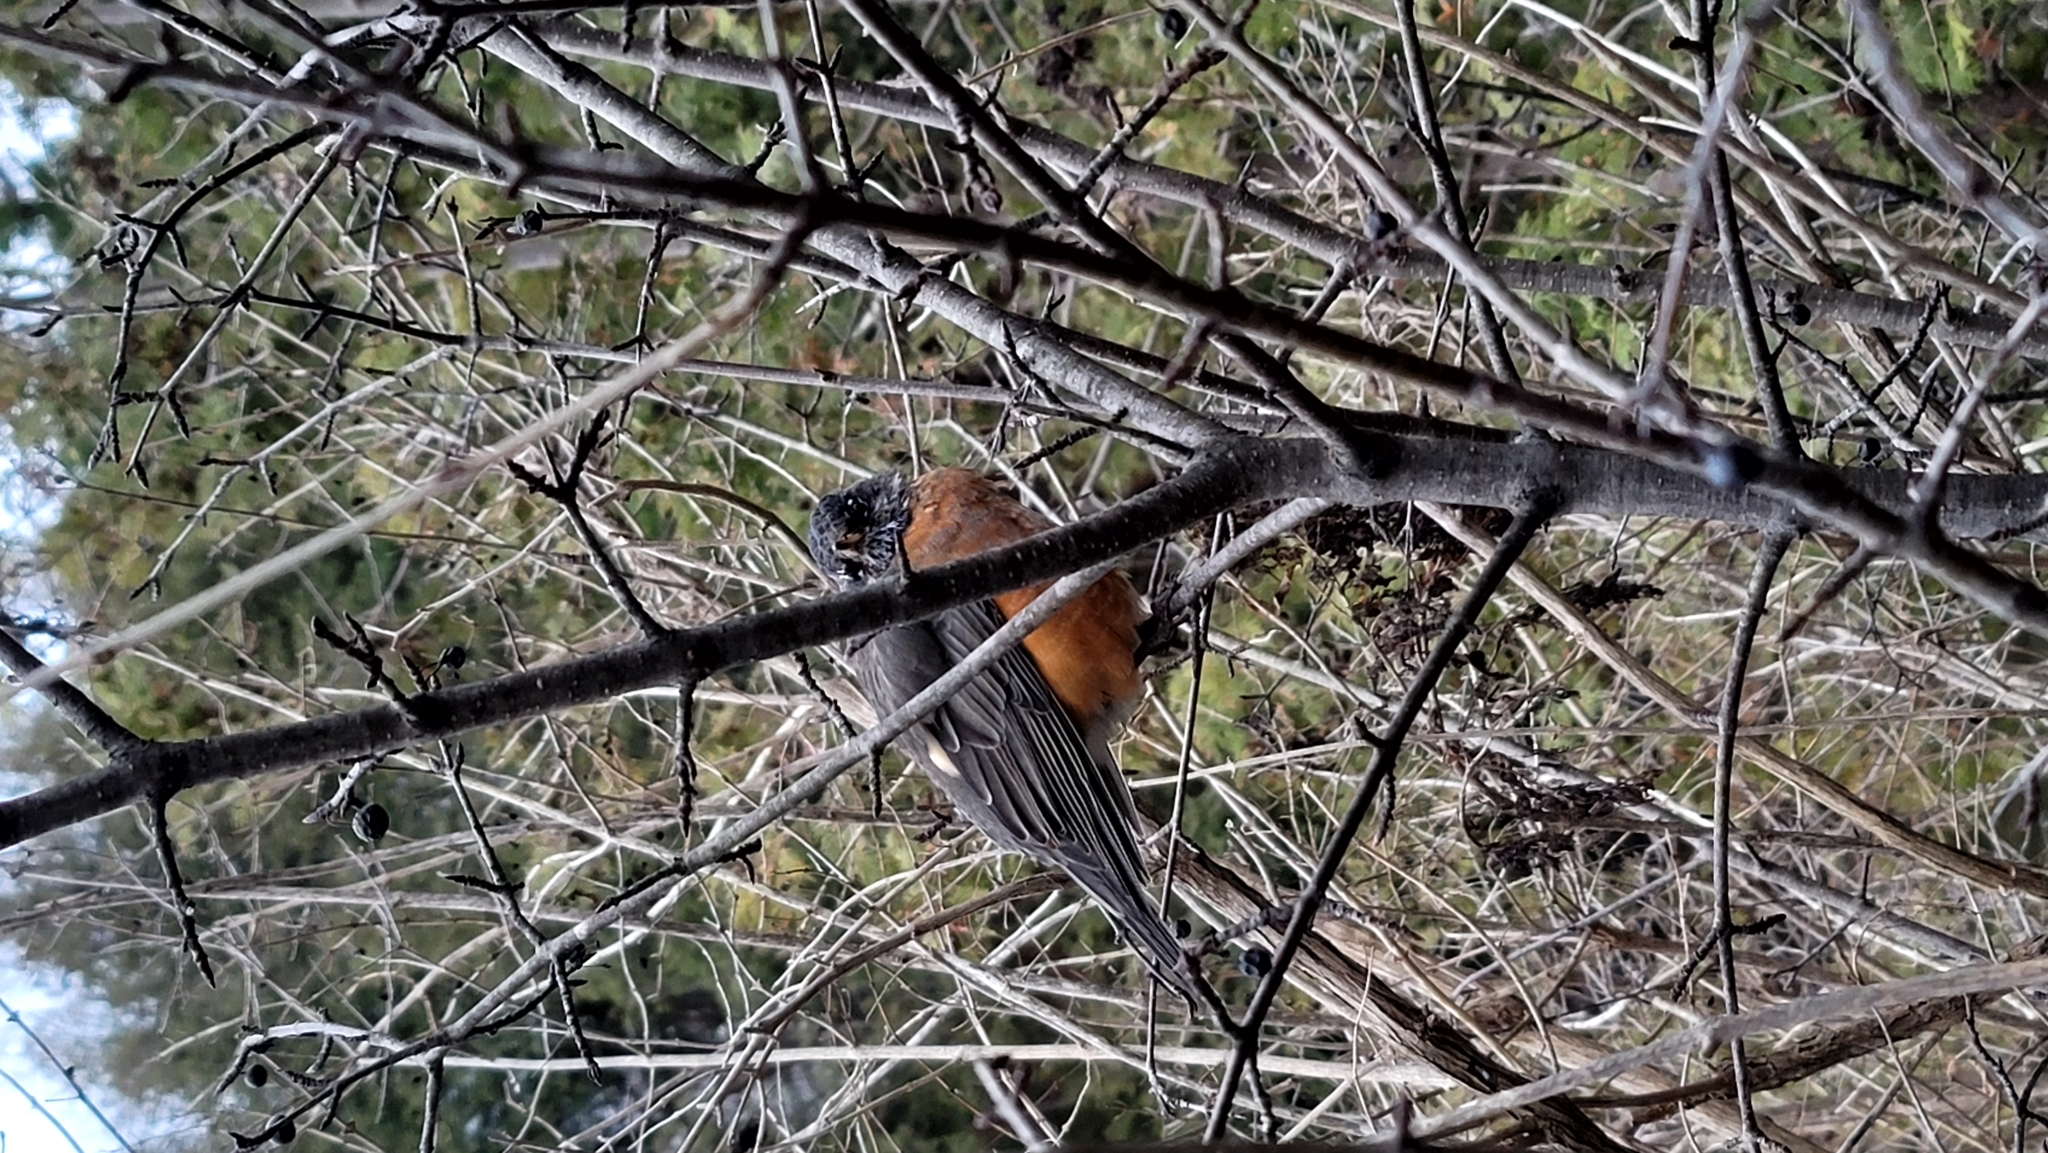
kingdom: Animalia
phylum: Chordata
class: Aves
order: Passeriformes
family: Turdidae
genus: Turdus
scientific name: Turdus migratorius
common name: American robin
